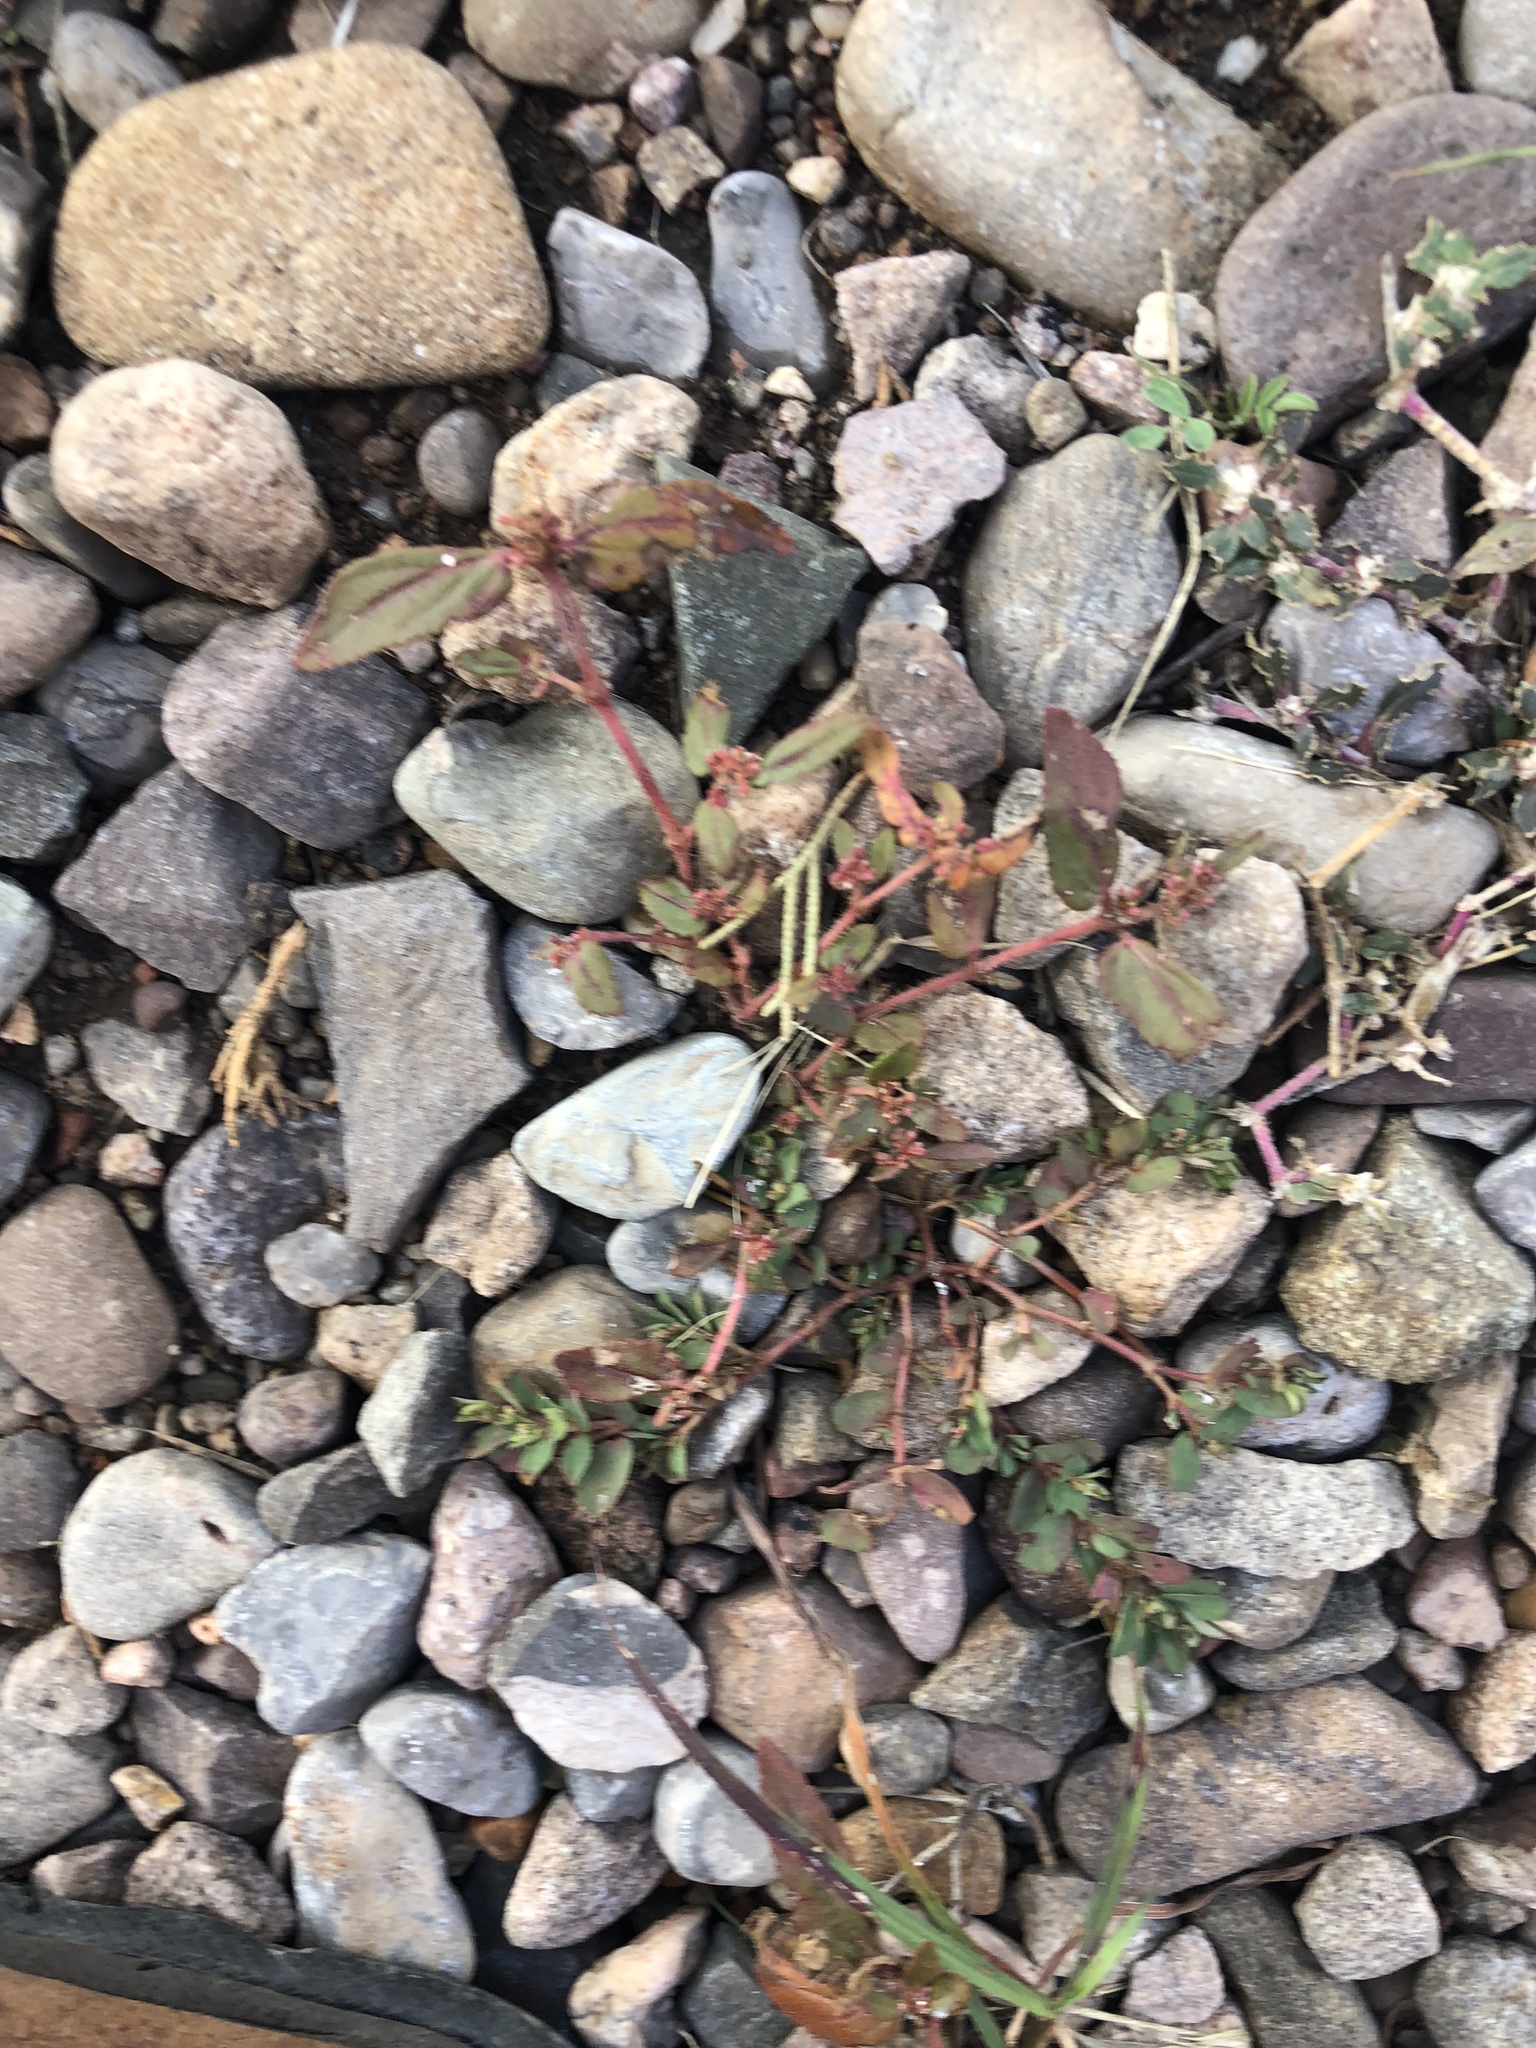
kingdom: Plantae
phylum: Tracheophyta
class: Magnoliopsida
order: Malpighiales
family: Euphorbiaceae
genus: Euphorbia
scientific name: Euphorbia hirta
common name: Pillpod sandmat
